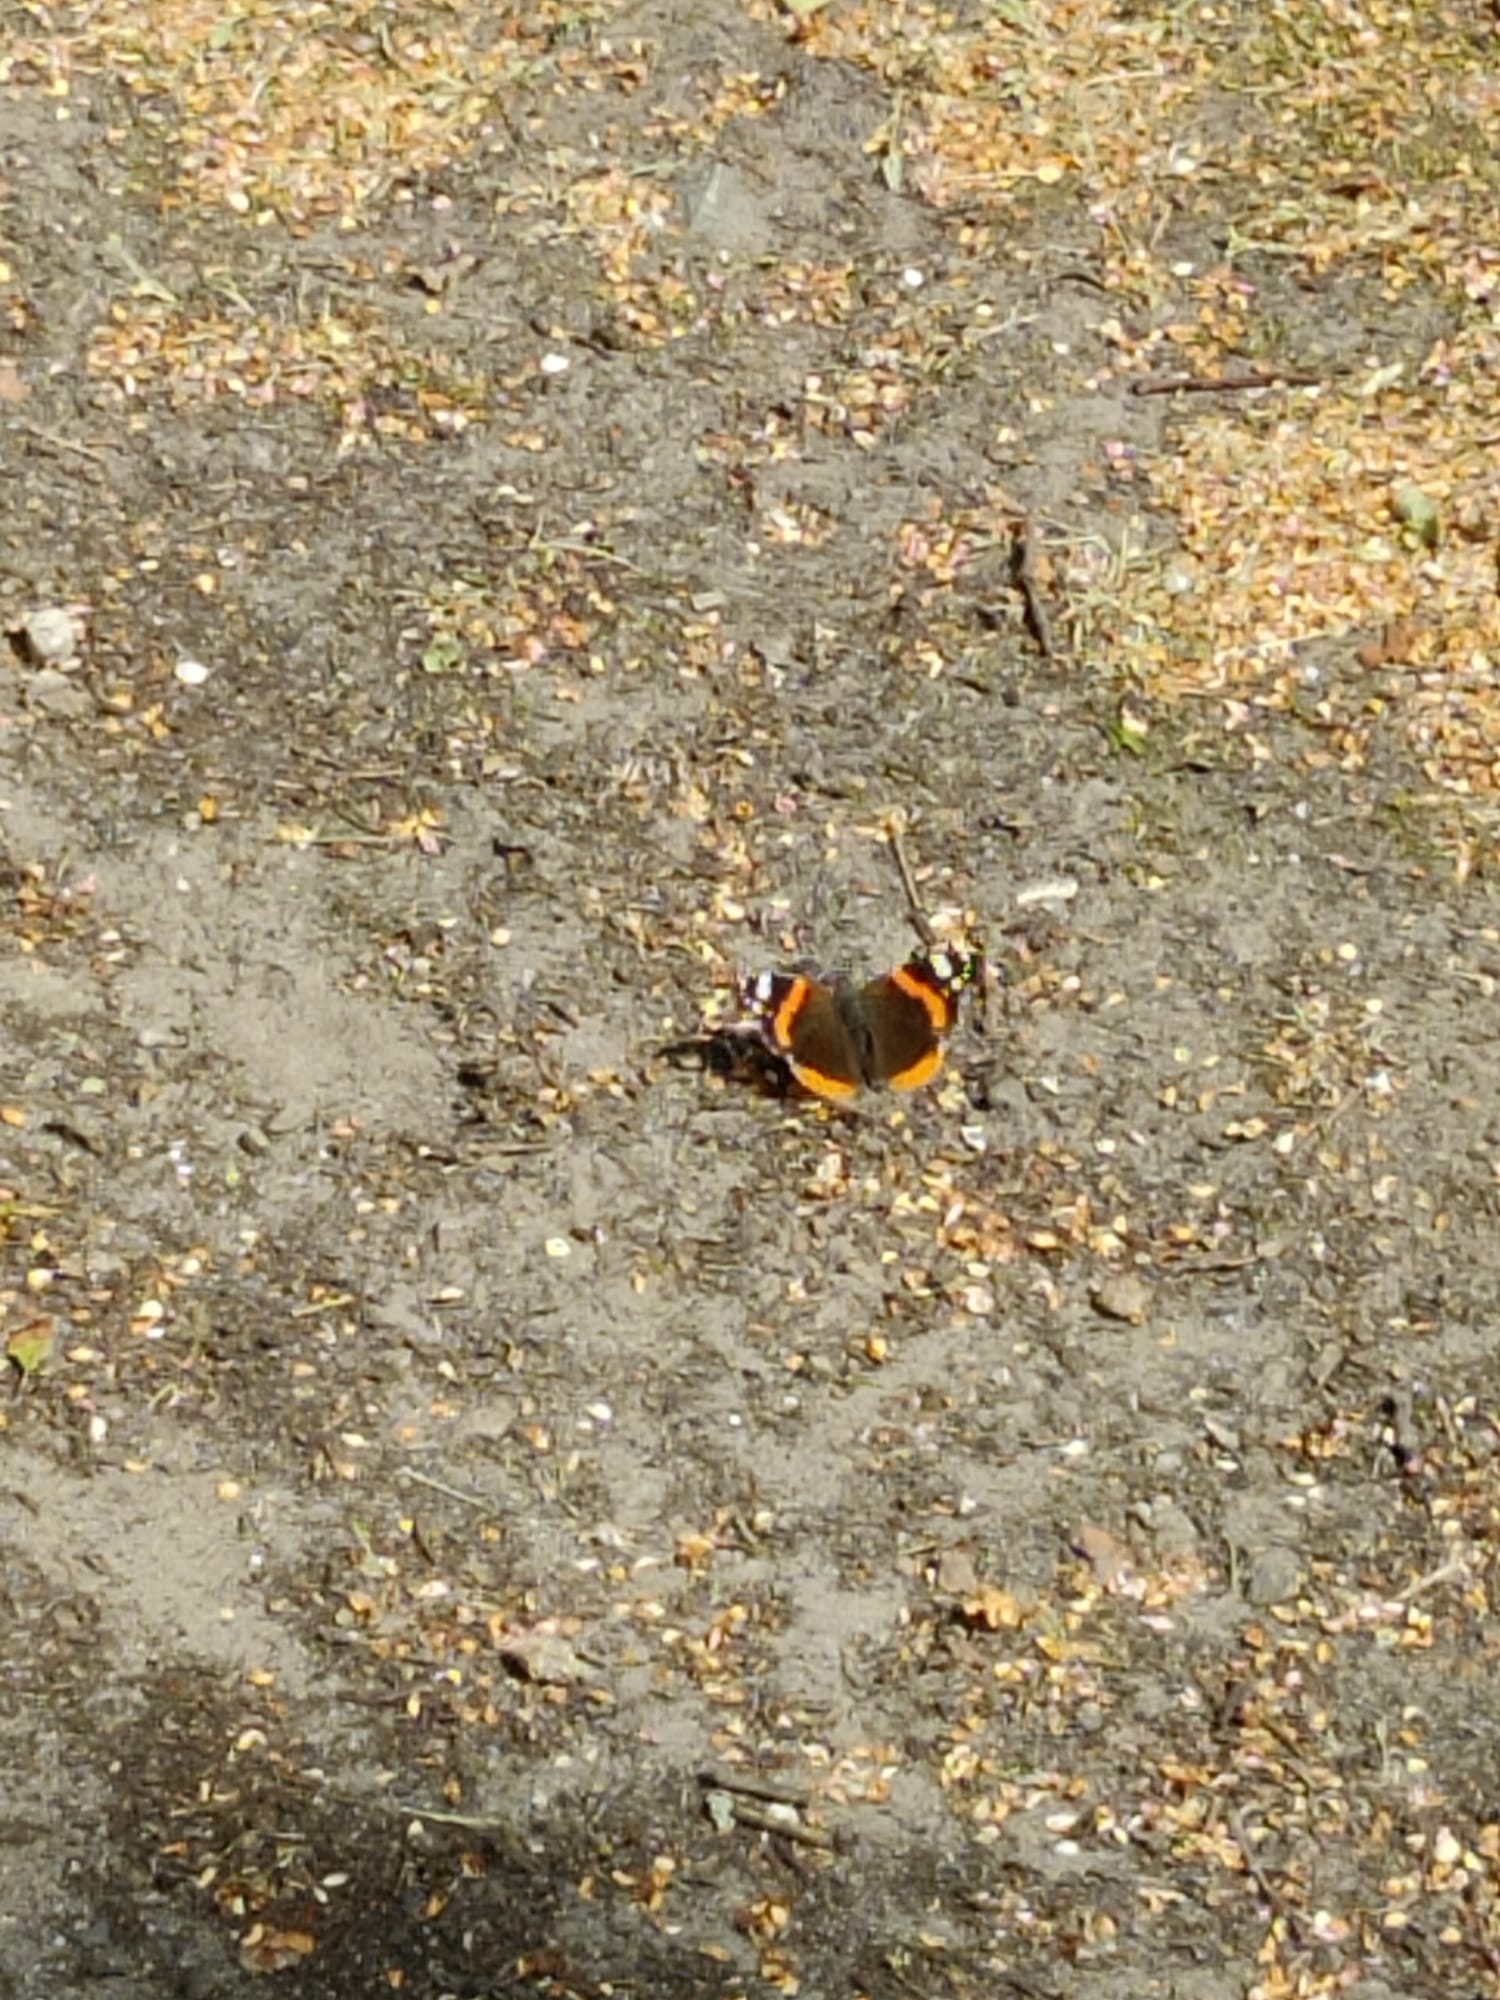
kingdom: Animalia
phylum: Arthropoda
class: Insecta
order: Lepidoptera
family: Nymphalidae
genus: Vanessa
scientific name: Vanessa atalanta
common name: Red admiral
